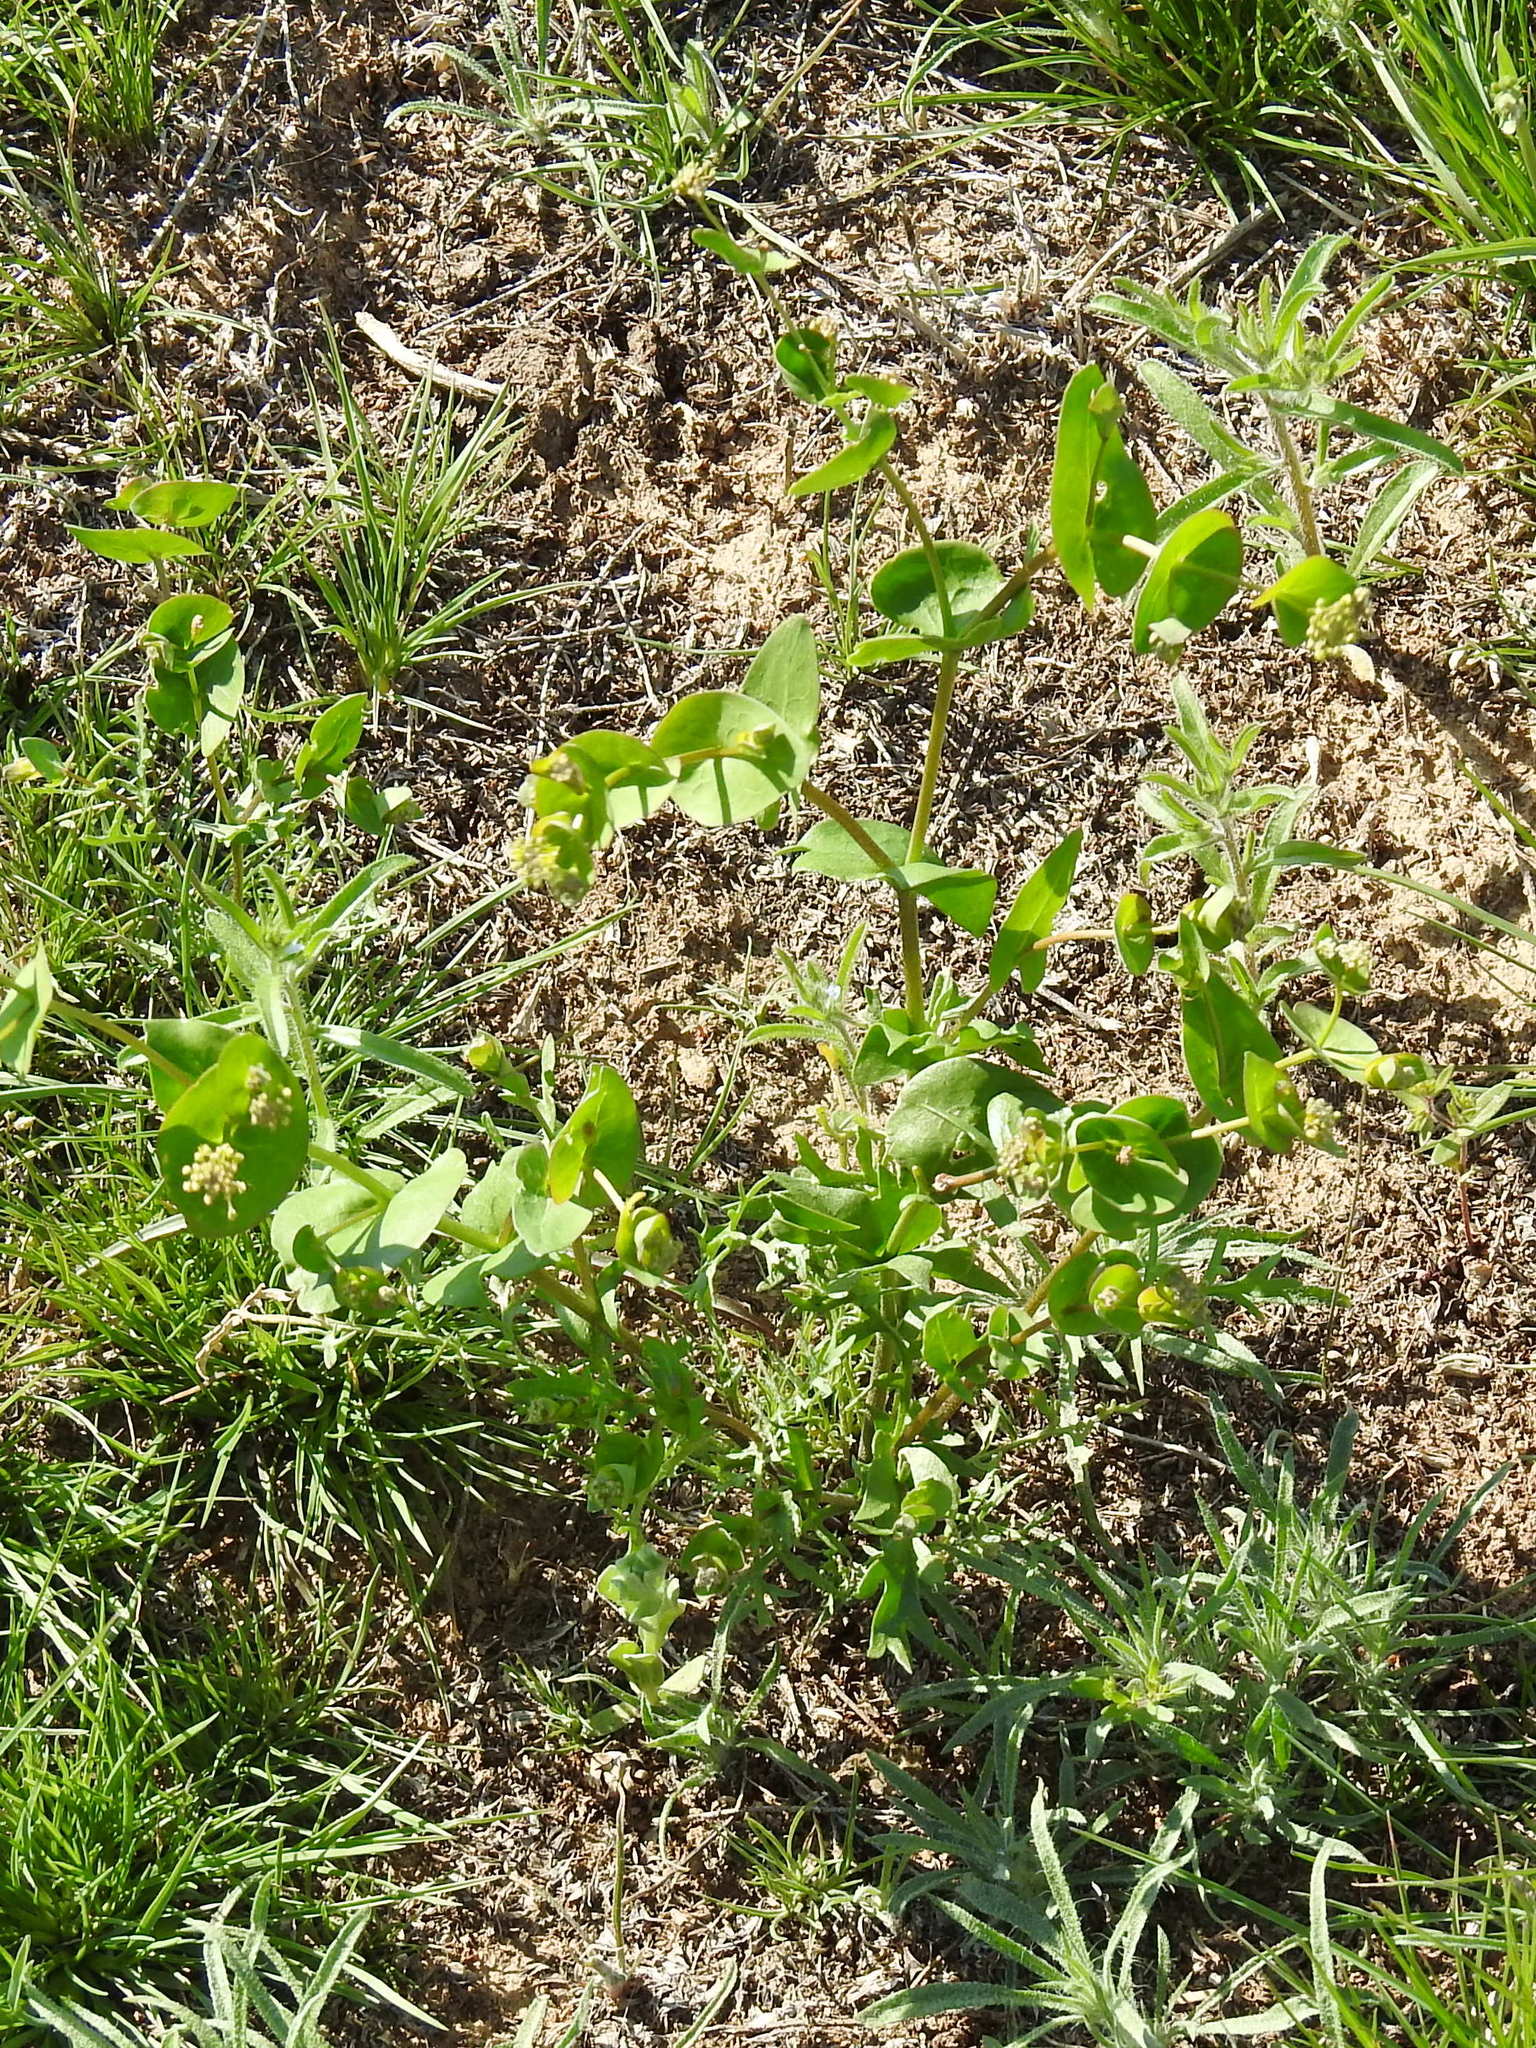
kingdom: Plantae
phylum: Tracheophyta
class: Magnoliopsida
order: Brassicales
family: Brassicaceae
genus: Lepidium
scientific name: Lepidium perfoliatum
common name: Perfoliate pepperwort
